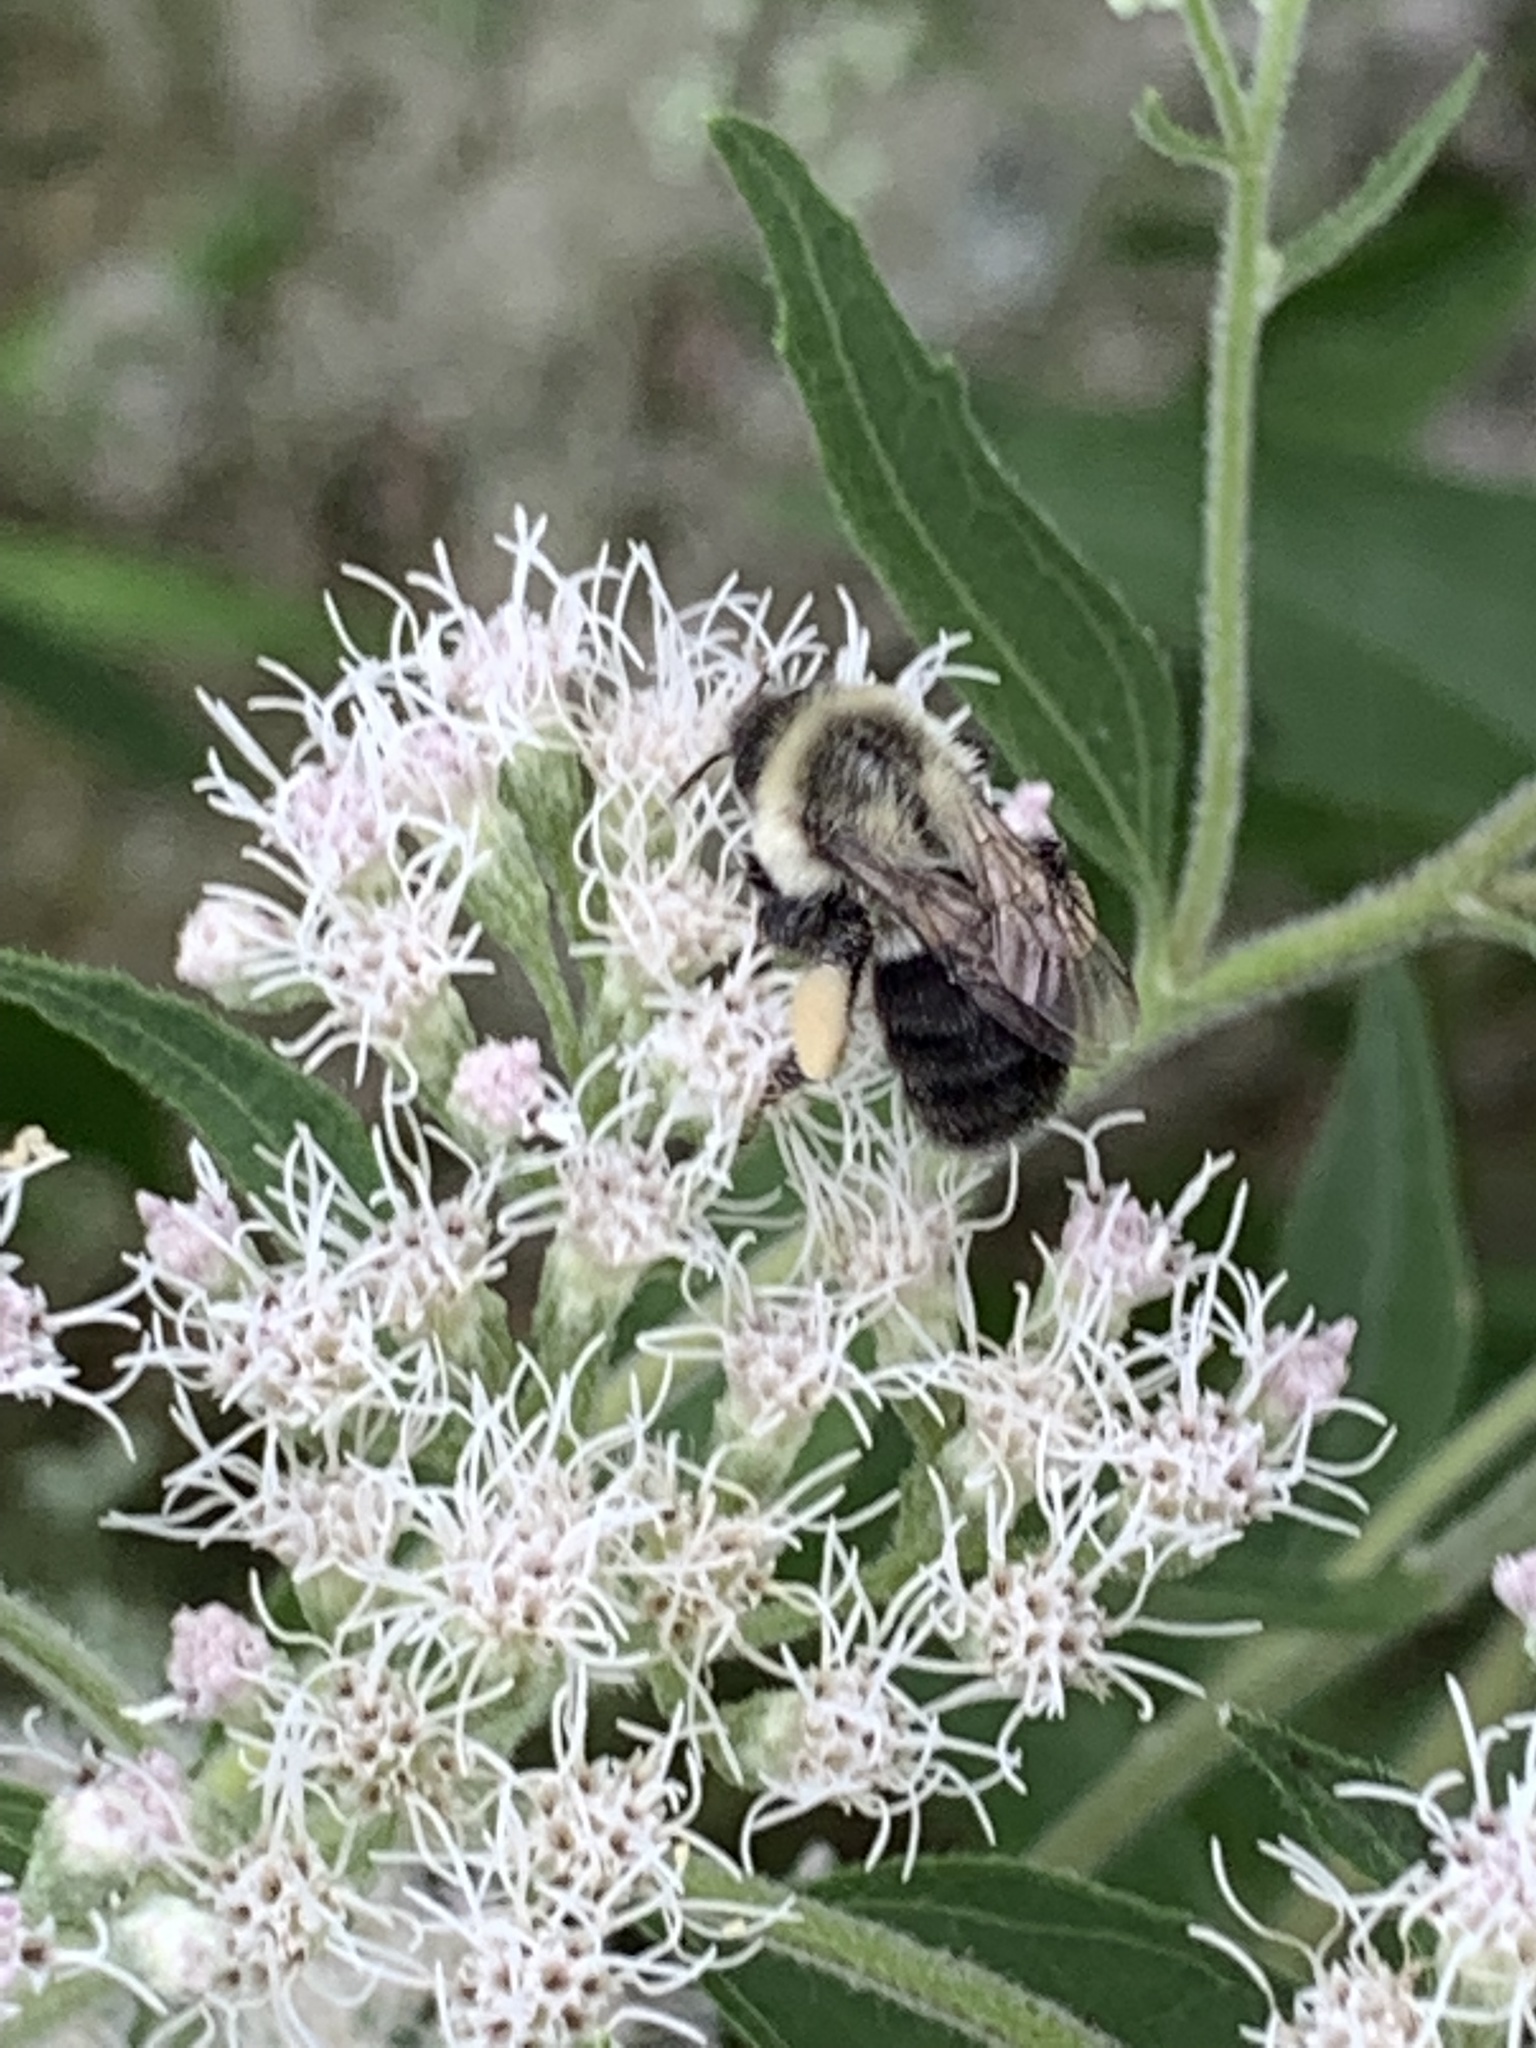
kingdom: Animalia
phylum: Arthropoda
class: Insecta
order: Hymenoptera
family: Apidae
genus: Bombus
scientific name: Bombus impatiens
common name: Common eastern bumble bee
